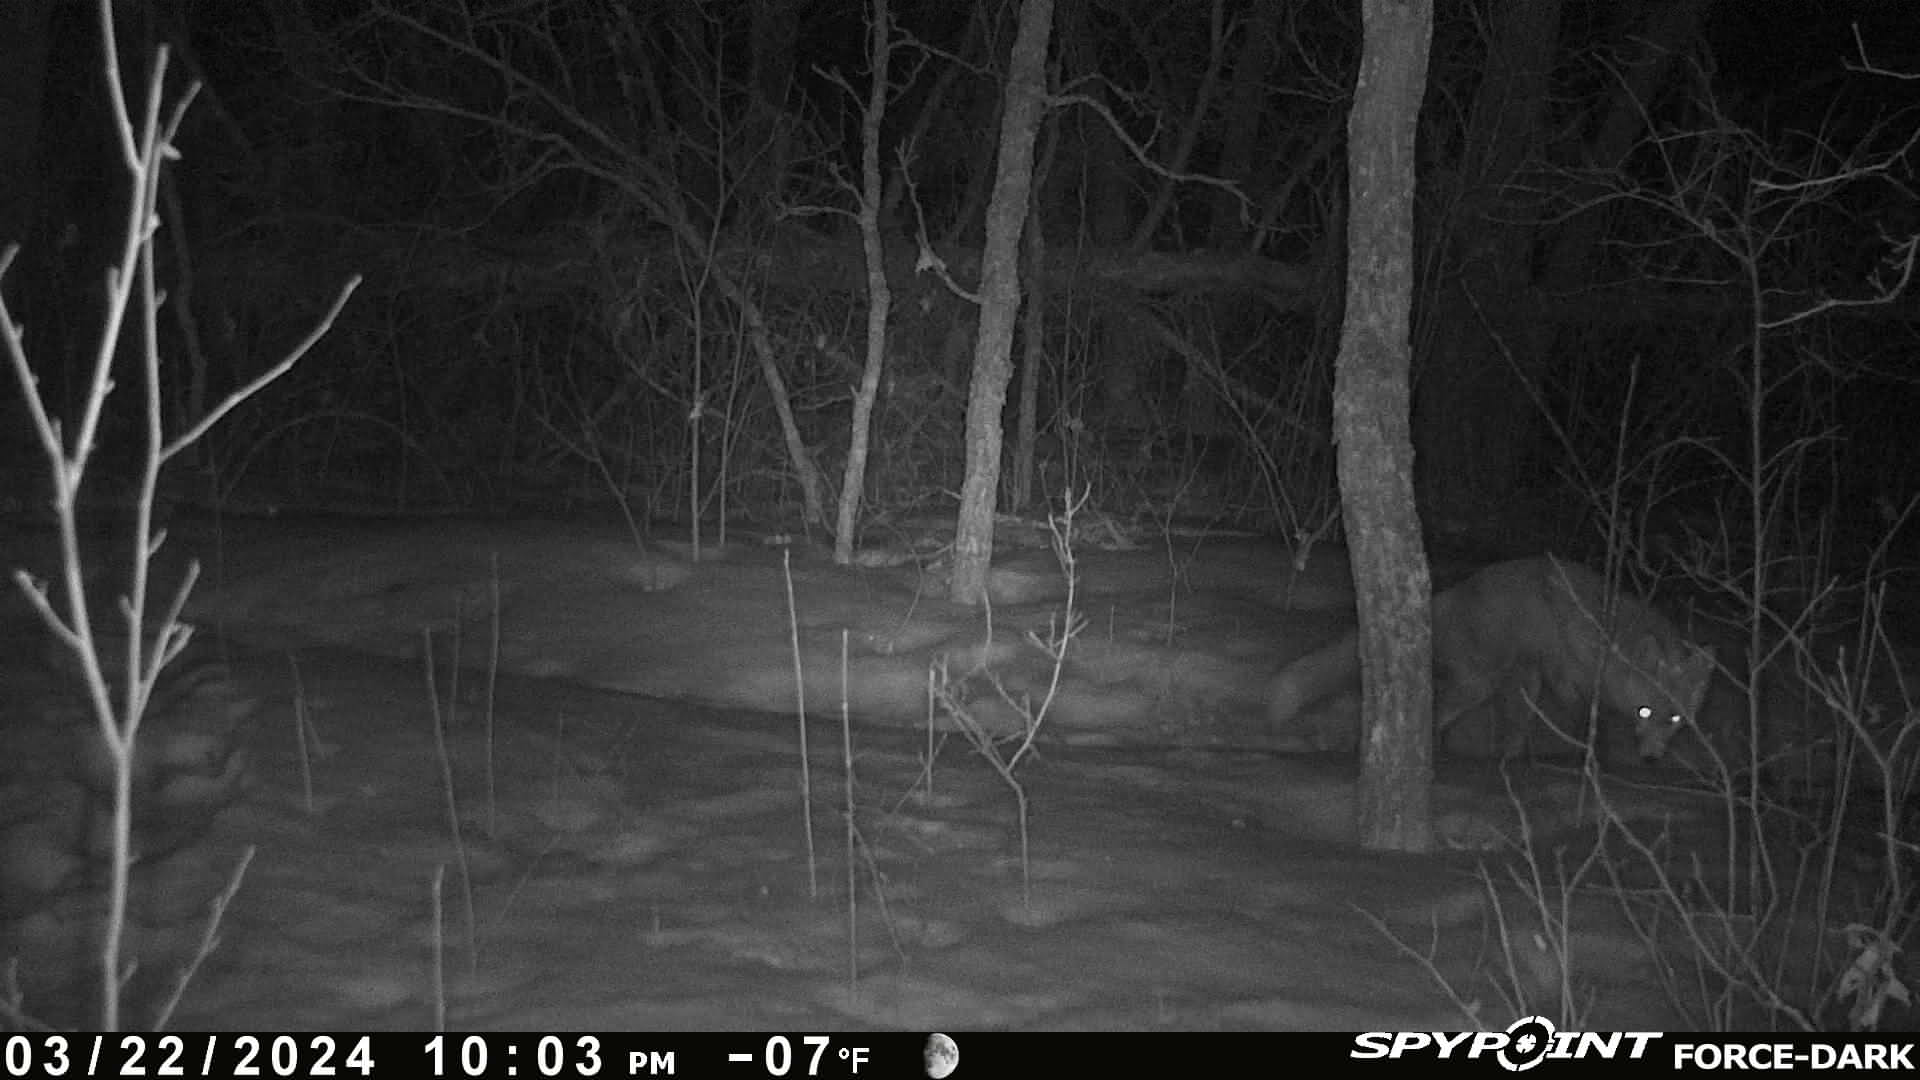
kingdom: Animalia
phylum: Chordata
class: Mammalia
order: Carnivora
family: Canidae
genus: Vulpes
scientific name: Vulpes vulpes
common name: Red fox
